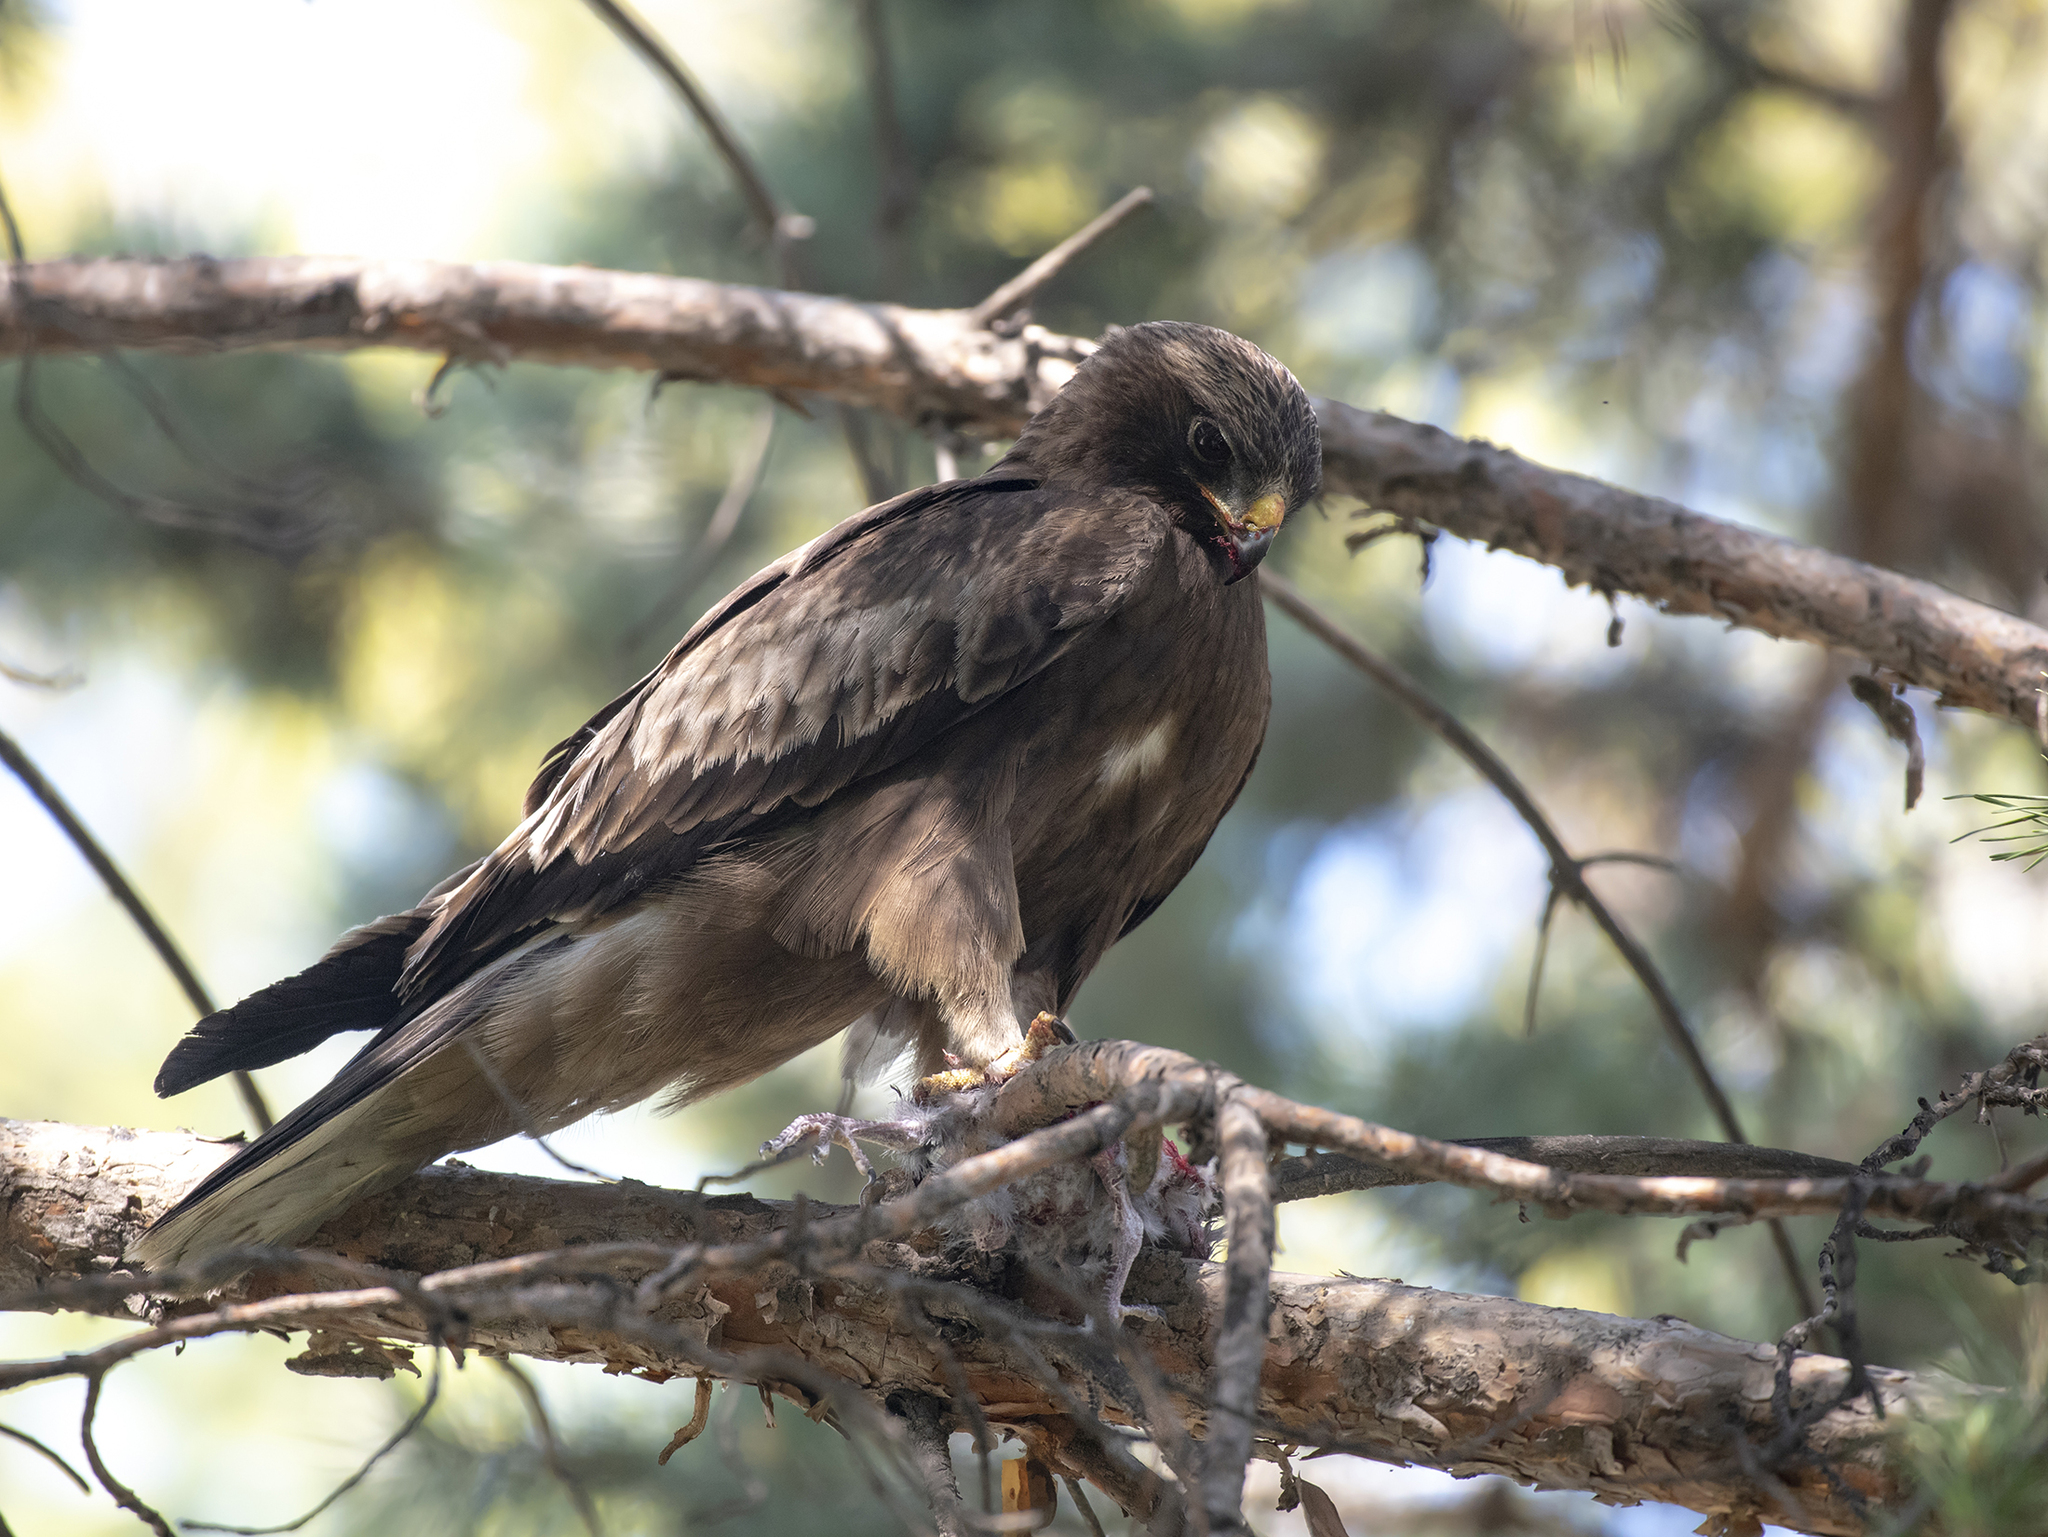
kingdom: Animalia
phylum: Chordata
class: Aves
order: Accipitriformes
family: Accipitridae
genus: Hieraaetus
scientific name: Hieraaetus pennatus
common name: Booted eagle
